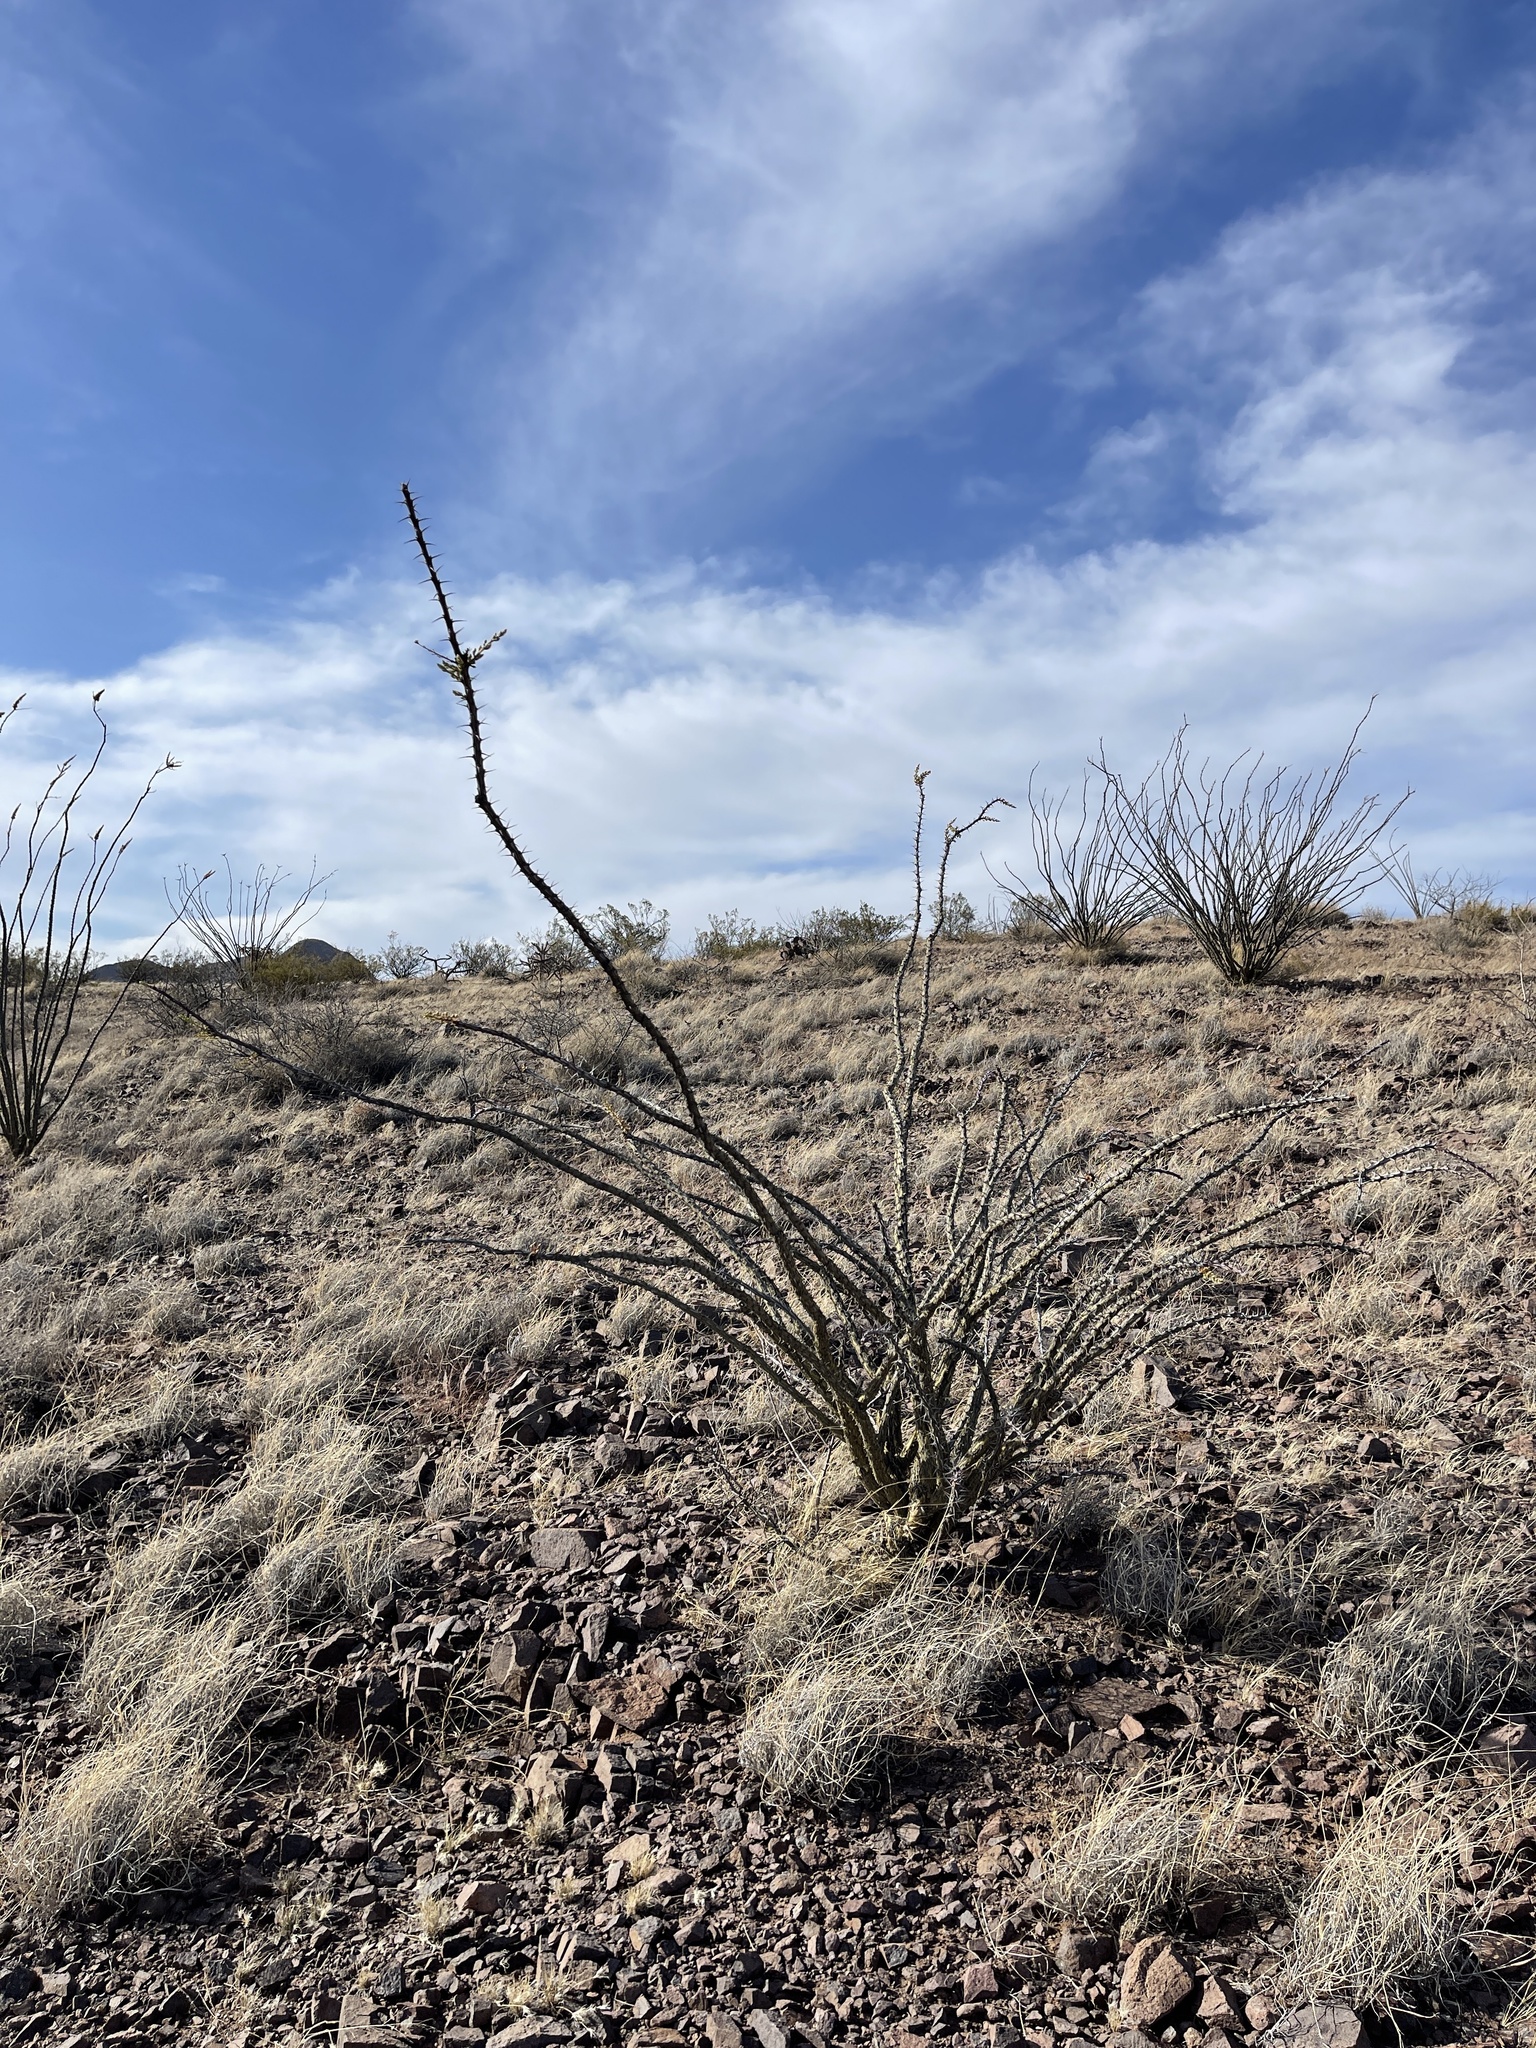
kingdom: Plantae
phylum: Tracheophyta
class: Magnoliopsida
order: Ericales
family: Fouquieriaceae
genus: Fouquieria
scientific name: Fouquieria splendens
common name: Vine-cactus
